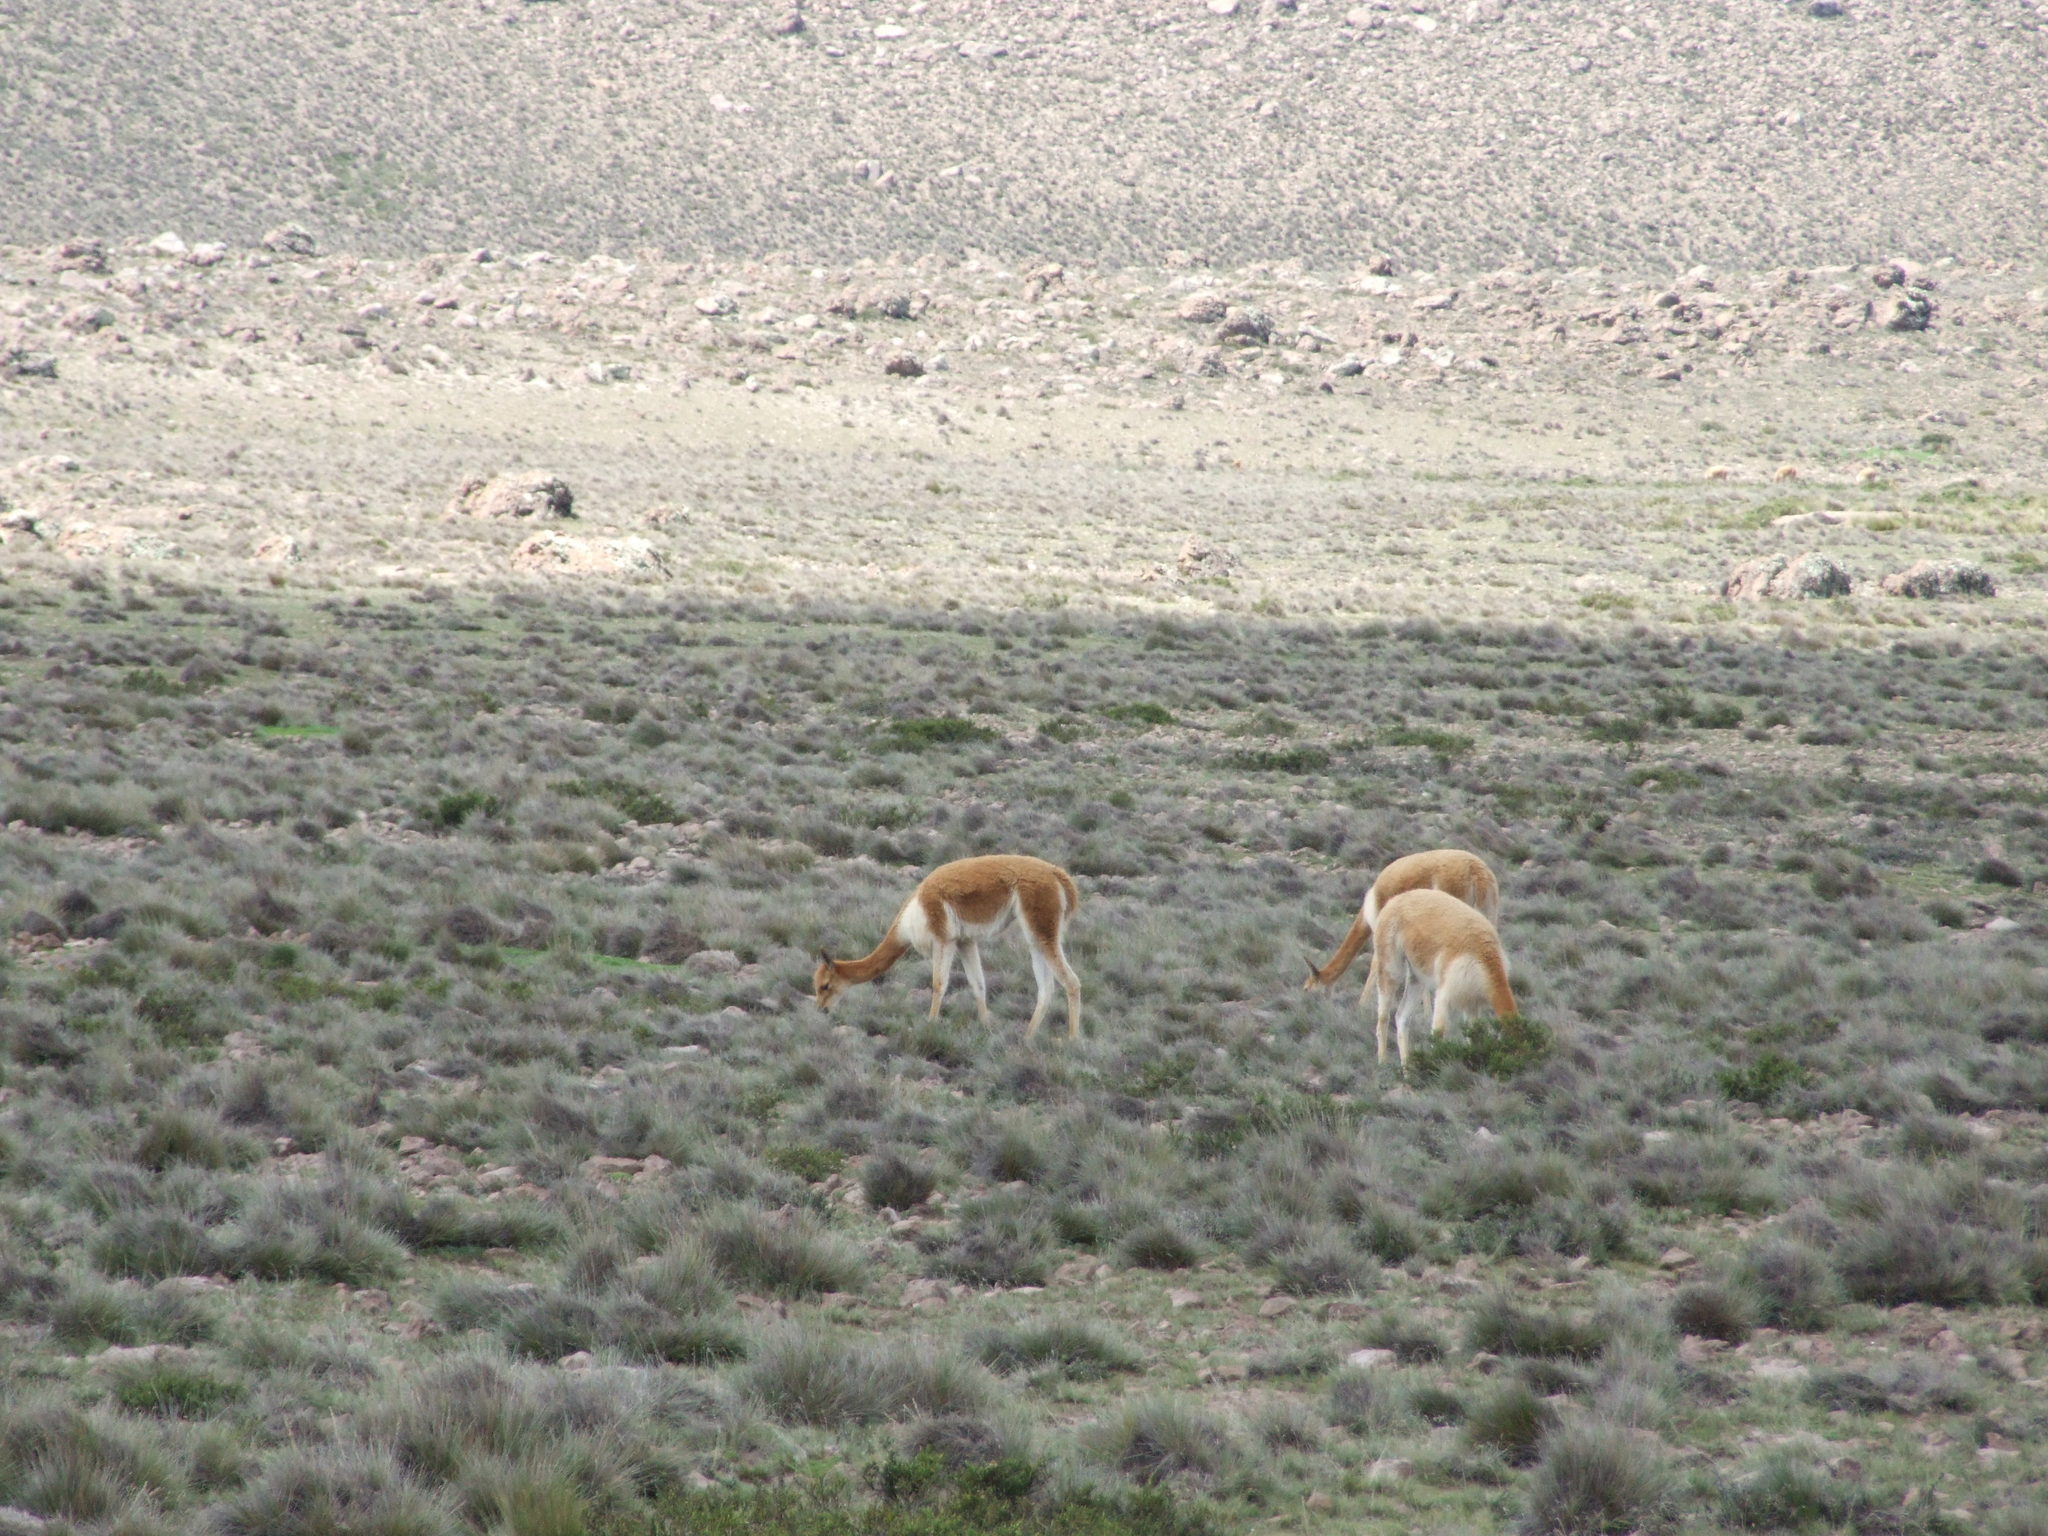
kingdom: Animalia
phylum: Chordata
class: Mammalia
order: Artiodactyla
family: Camelidae
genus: Vicugna
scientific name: Vicugna vicugna
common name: Vicugna
